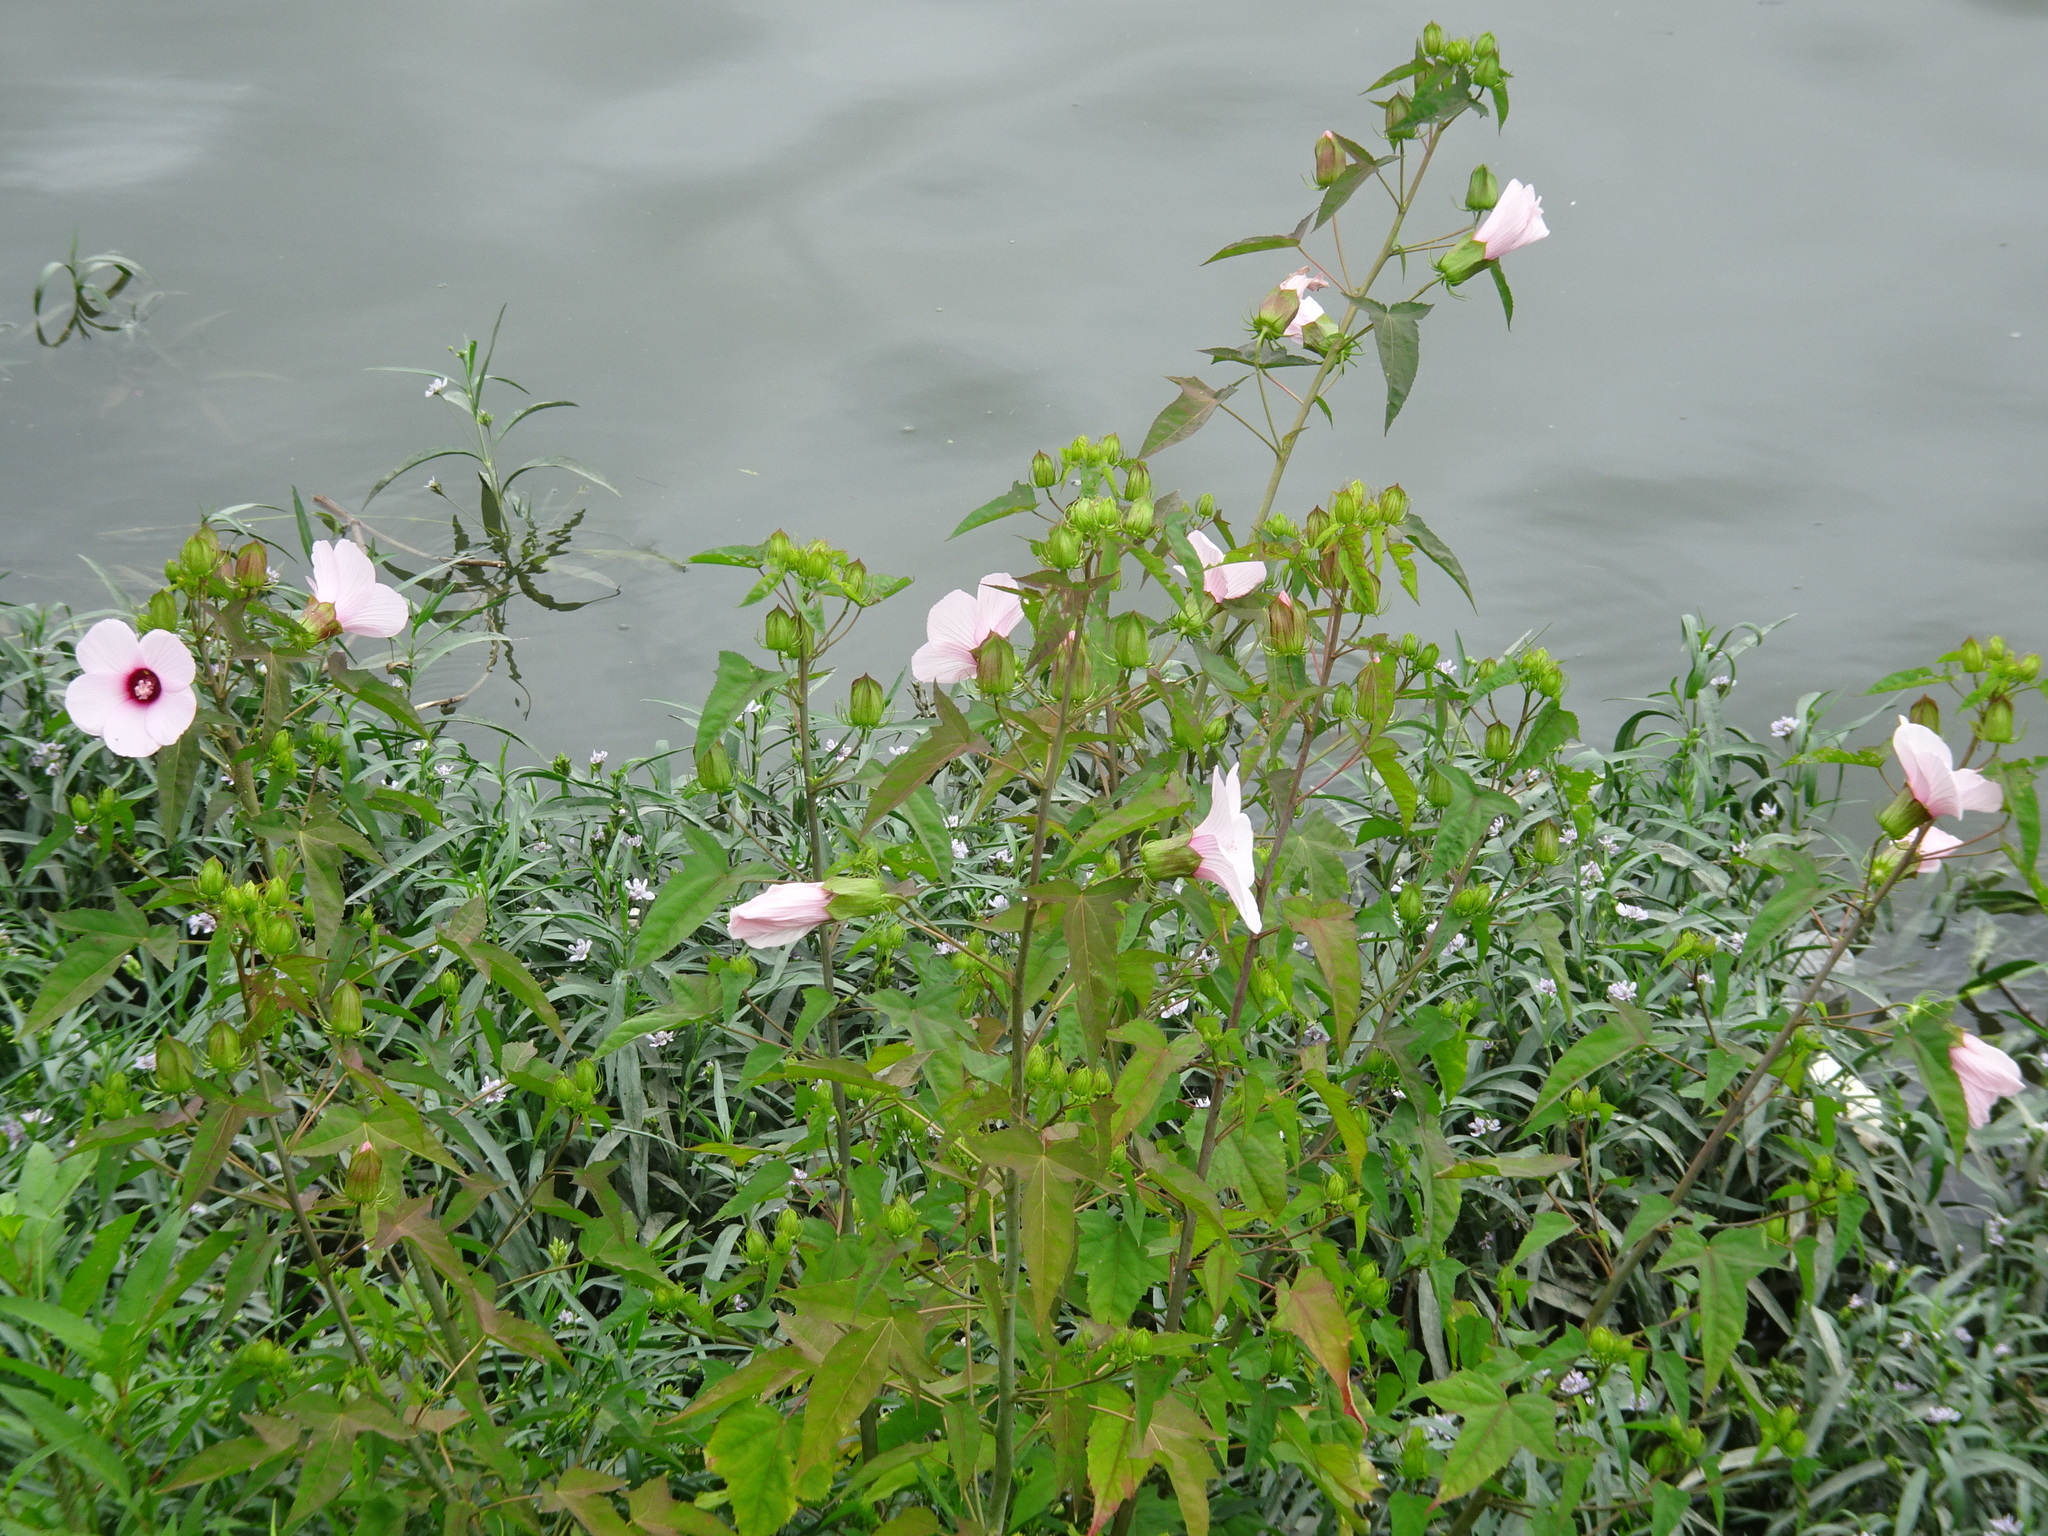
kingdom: Plantae
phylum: Tracheophyta
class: Magnoliopsida
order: Malvales
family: Malvaceae
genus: Hibiscus
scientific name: Hibiscus laevis
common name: Scarlet rose-mallow
